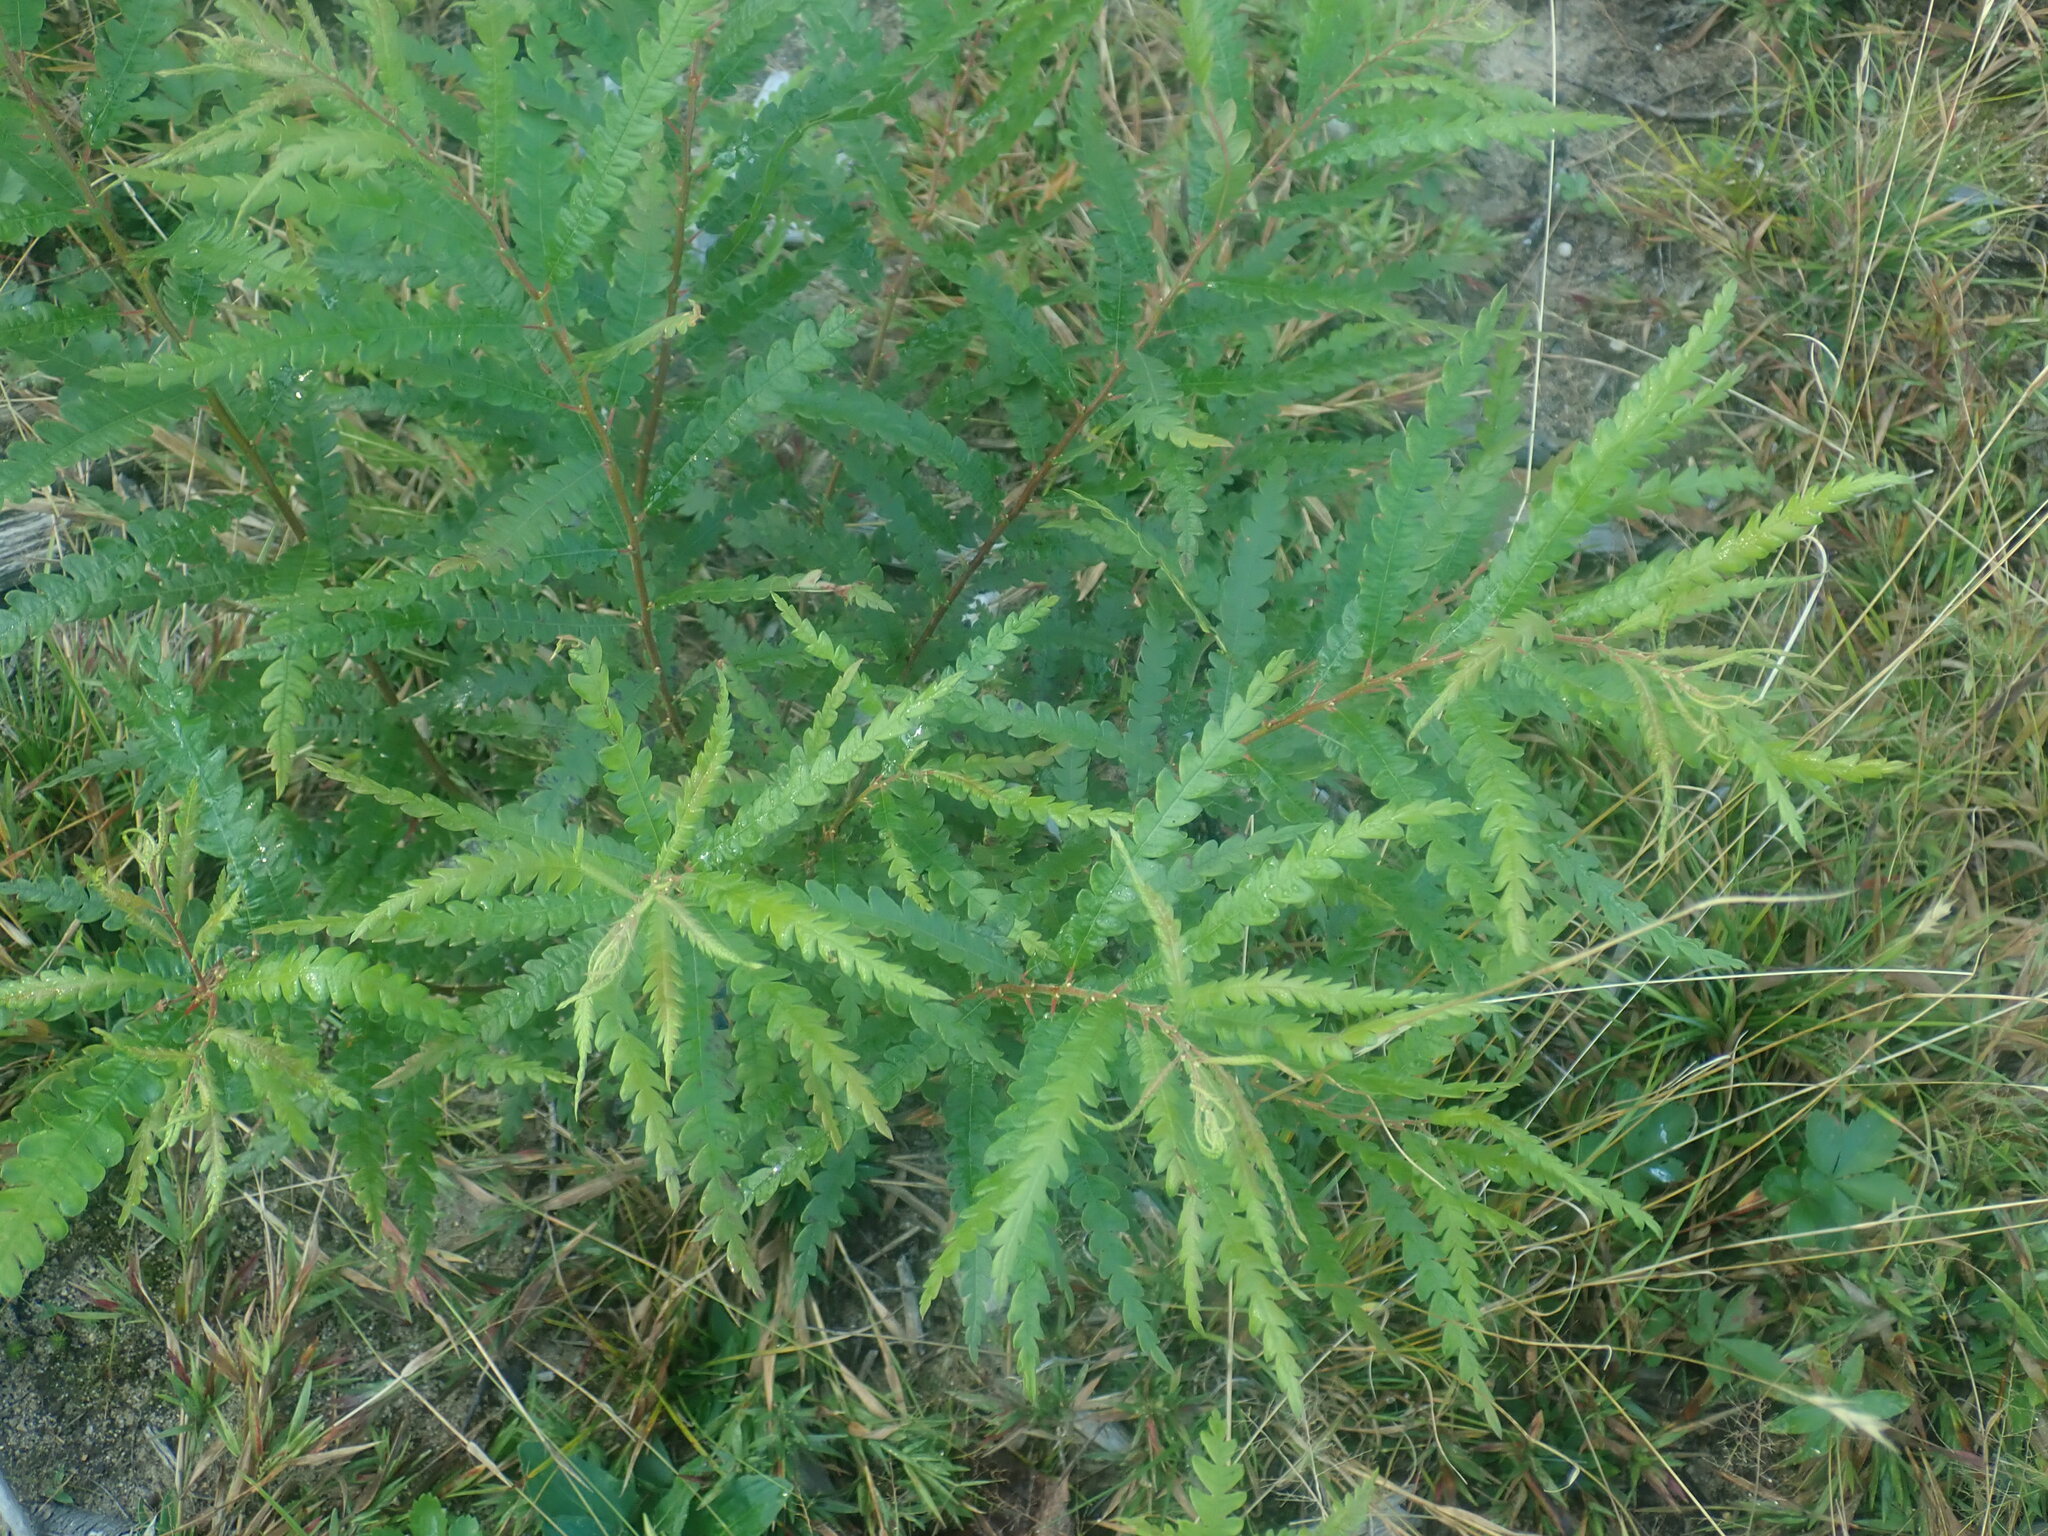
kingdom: Plantae
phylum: Tracheophyta
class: Magnoliopsida
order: Fagales
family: Myricaceae
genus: Comptonia
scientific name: Comptonia peregrina
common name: Sweet-fern
